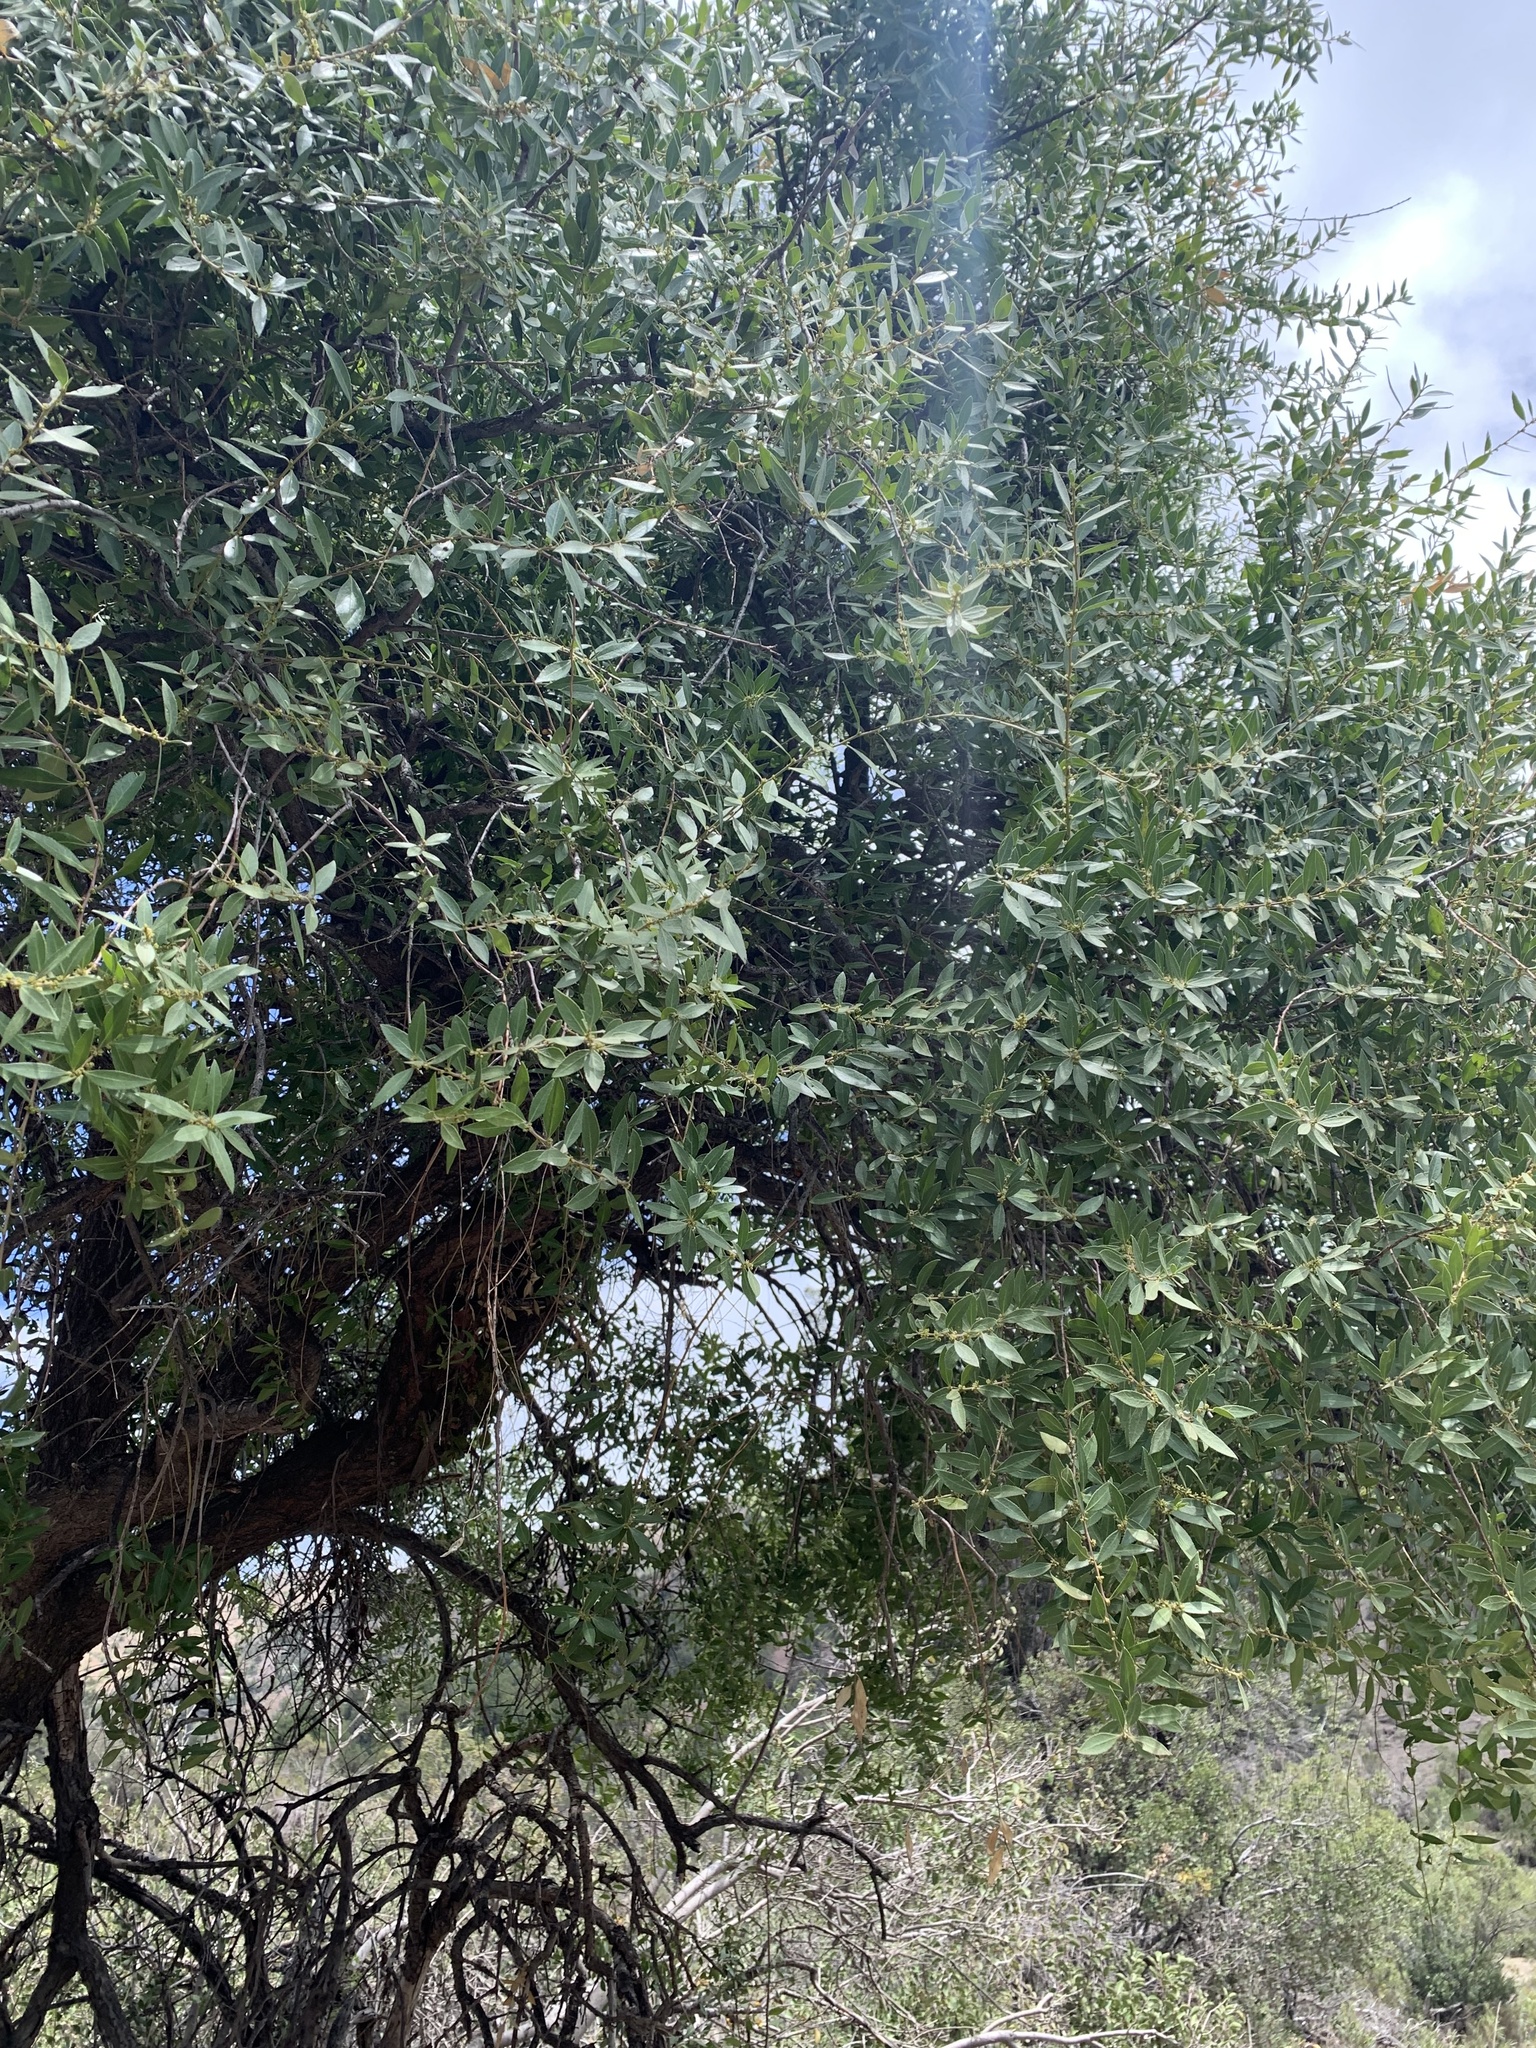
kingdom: Plantae
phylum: Tracheophyta
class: Magnoliopsida
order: Celastrales
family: Celastraceae
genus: Maytenus
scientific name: Maytenus boaria
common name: Mayten
